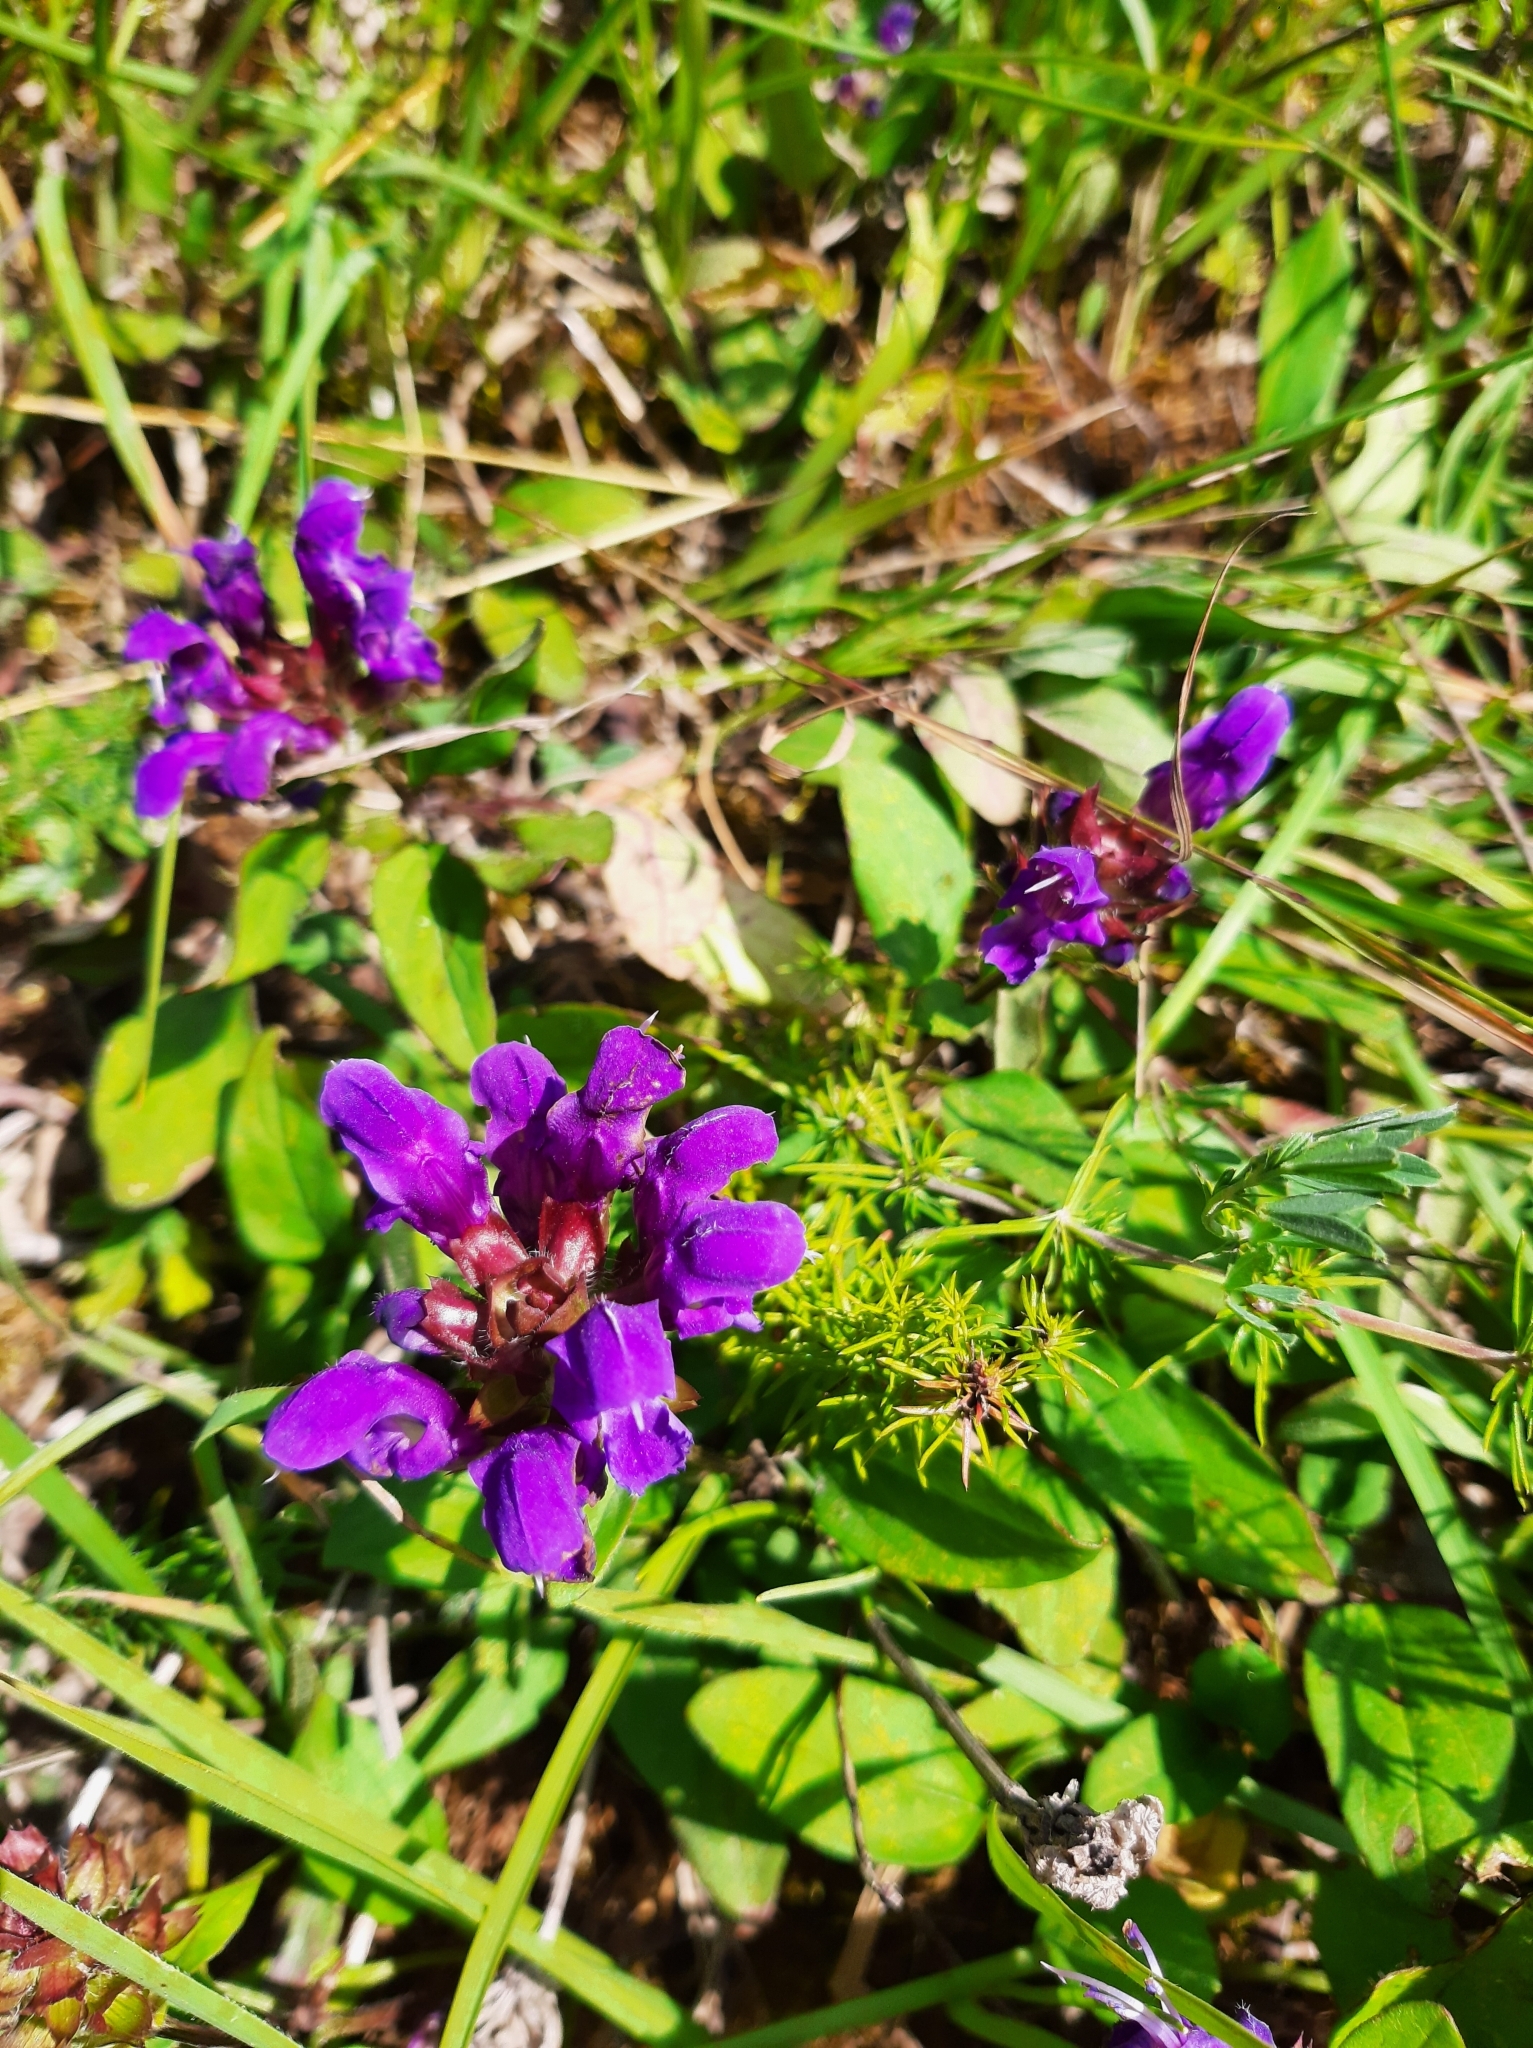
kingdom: Plantae
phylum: Tracheophyta
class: Magnoliopsida
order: Lamiales
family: Lamiaceae
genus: Prunella
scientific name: Prunella grandiflora
